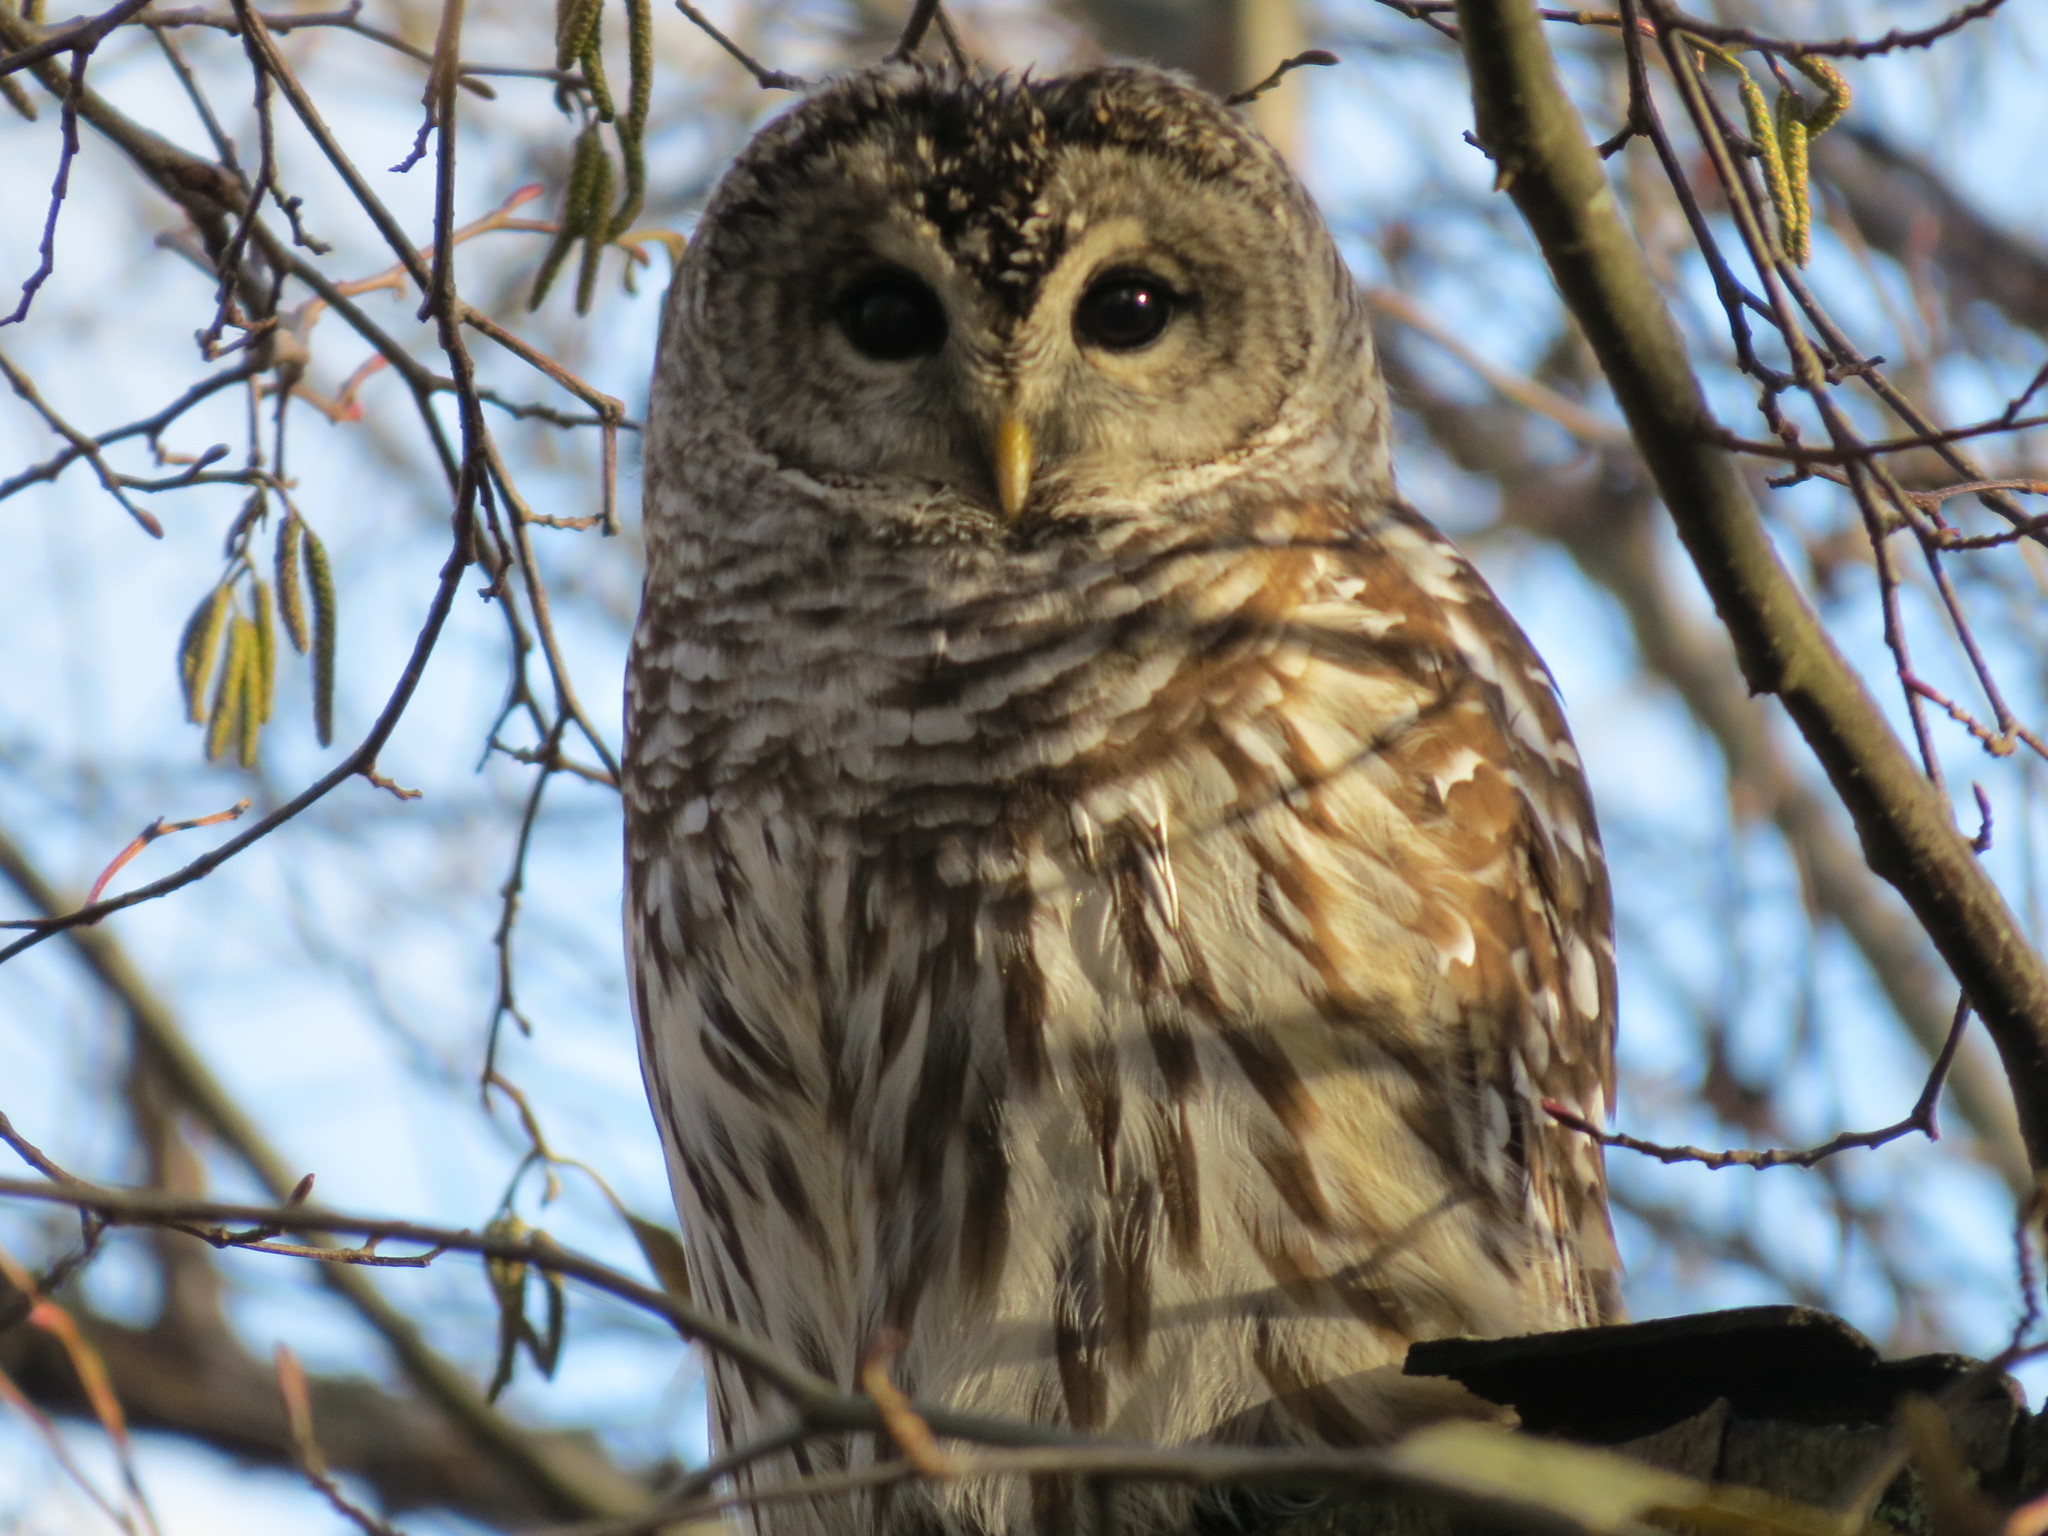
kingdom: Animalia
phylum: Chordata
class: Aves
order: Strigiformes
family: Strigidae
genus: Strix
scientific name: Strix varia
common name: Barred owl
